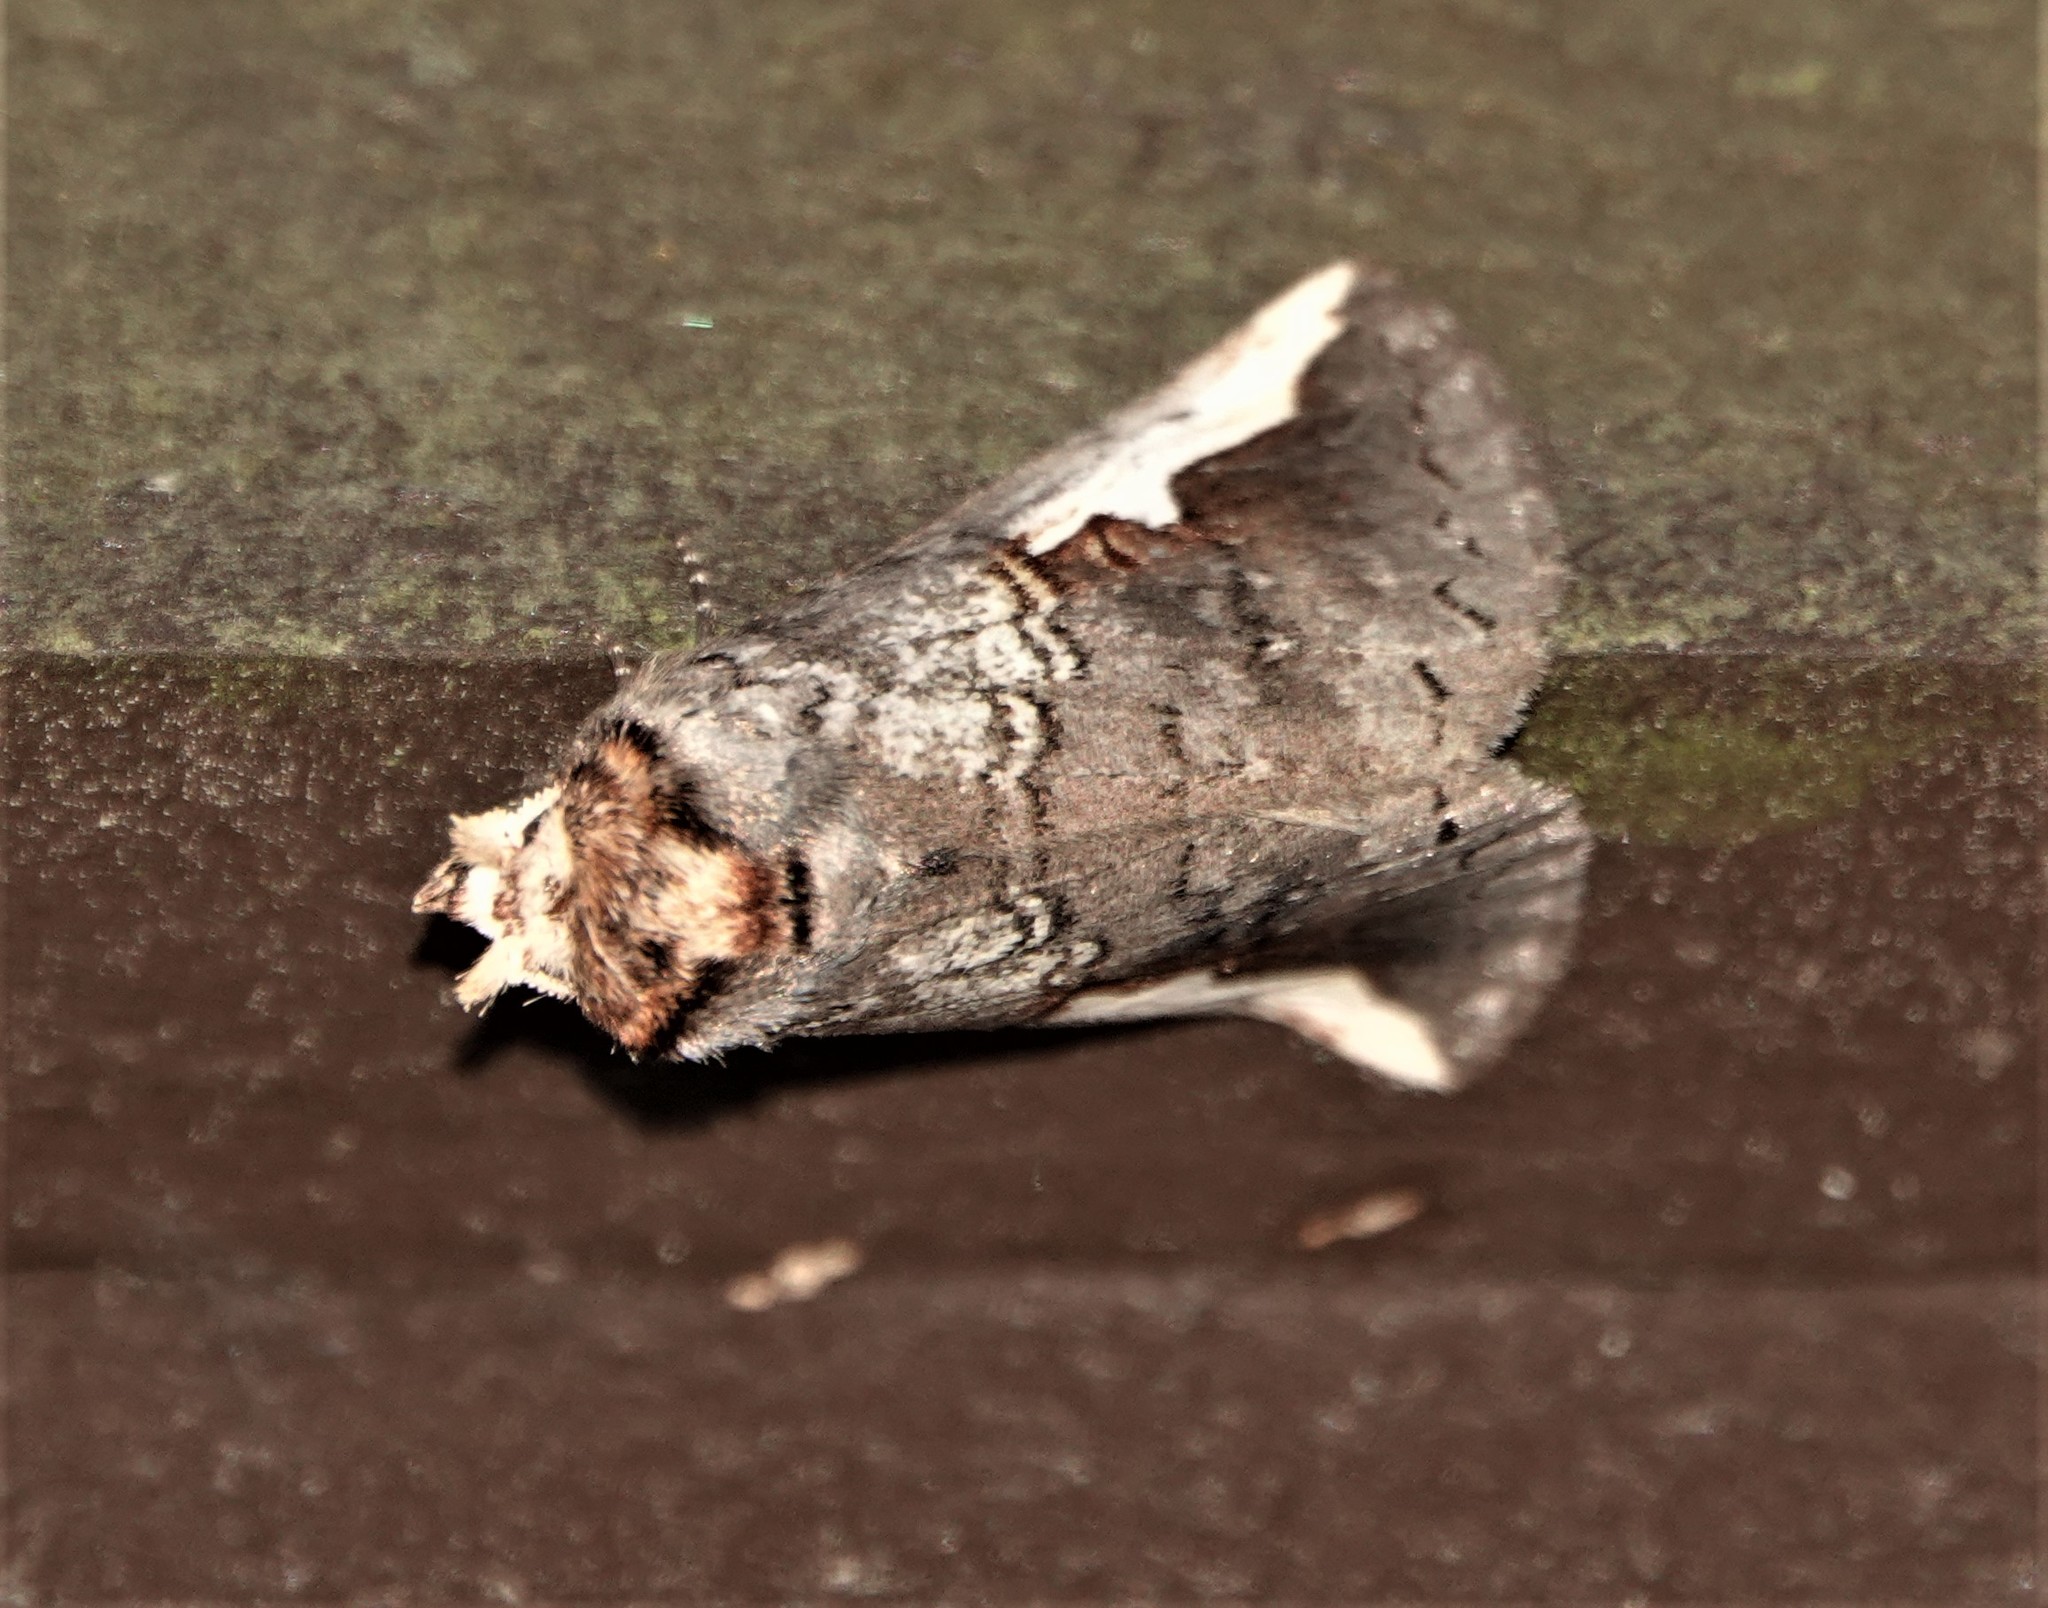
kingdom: Animalia
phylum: Arthropoda
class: Insecta
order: Lepidoptera
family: Notodontidae
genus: Symmerista
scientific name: Symmerista albifrons
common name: White-headed prominent
